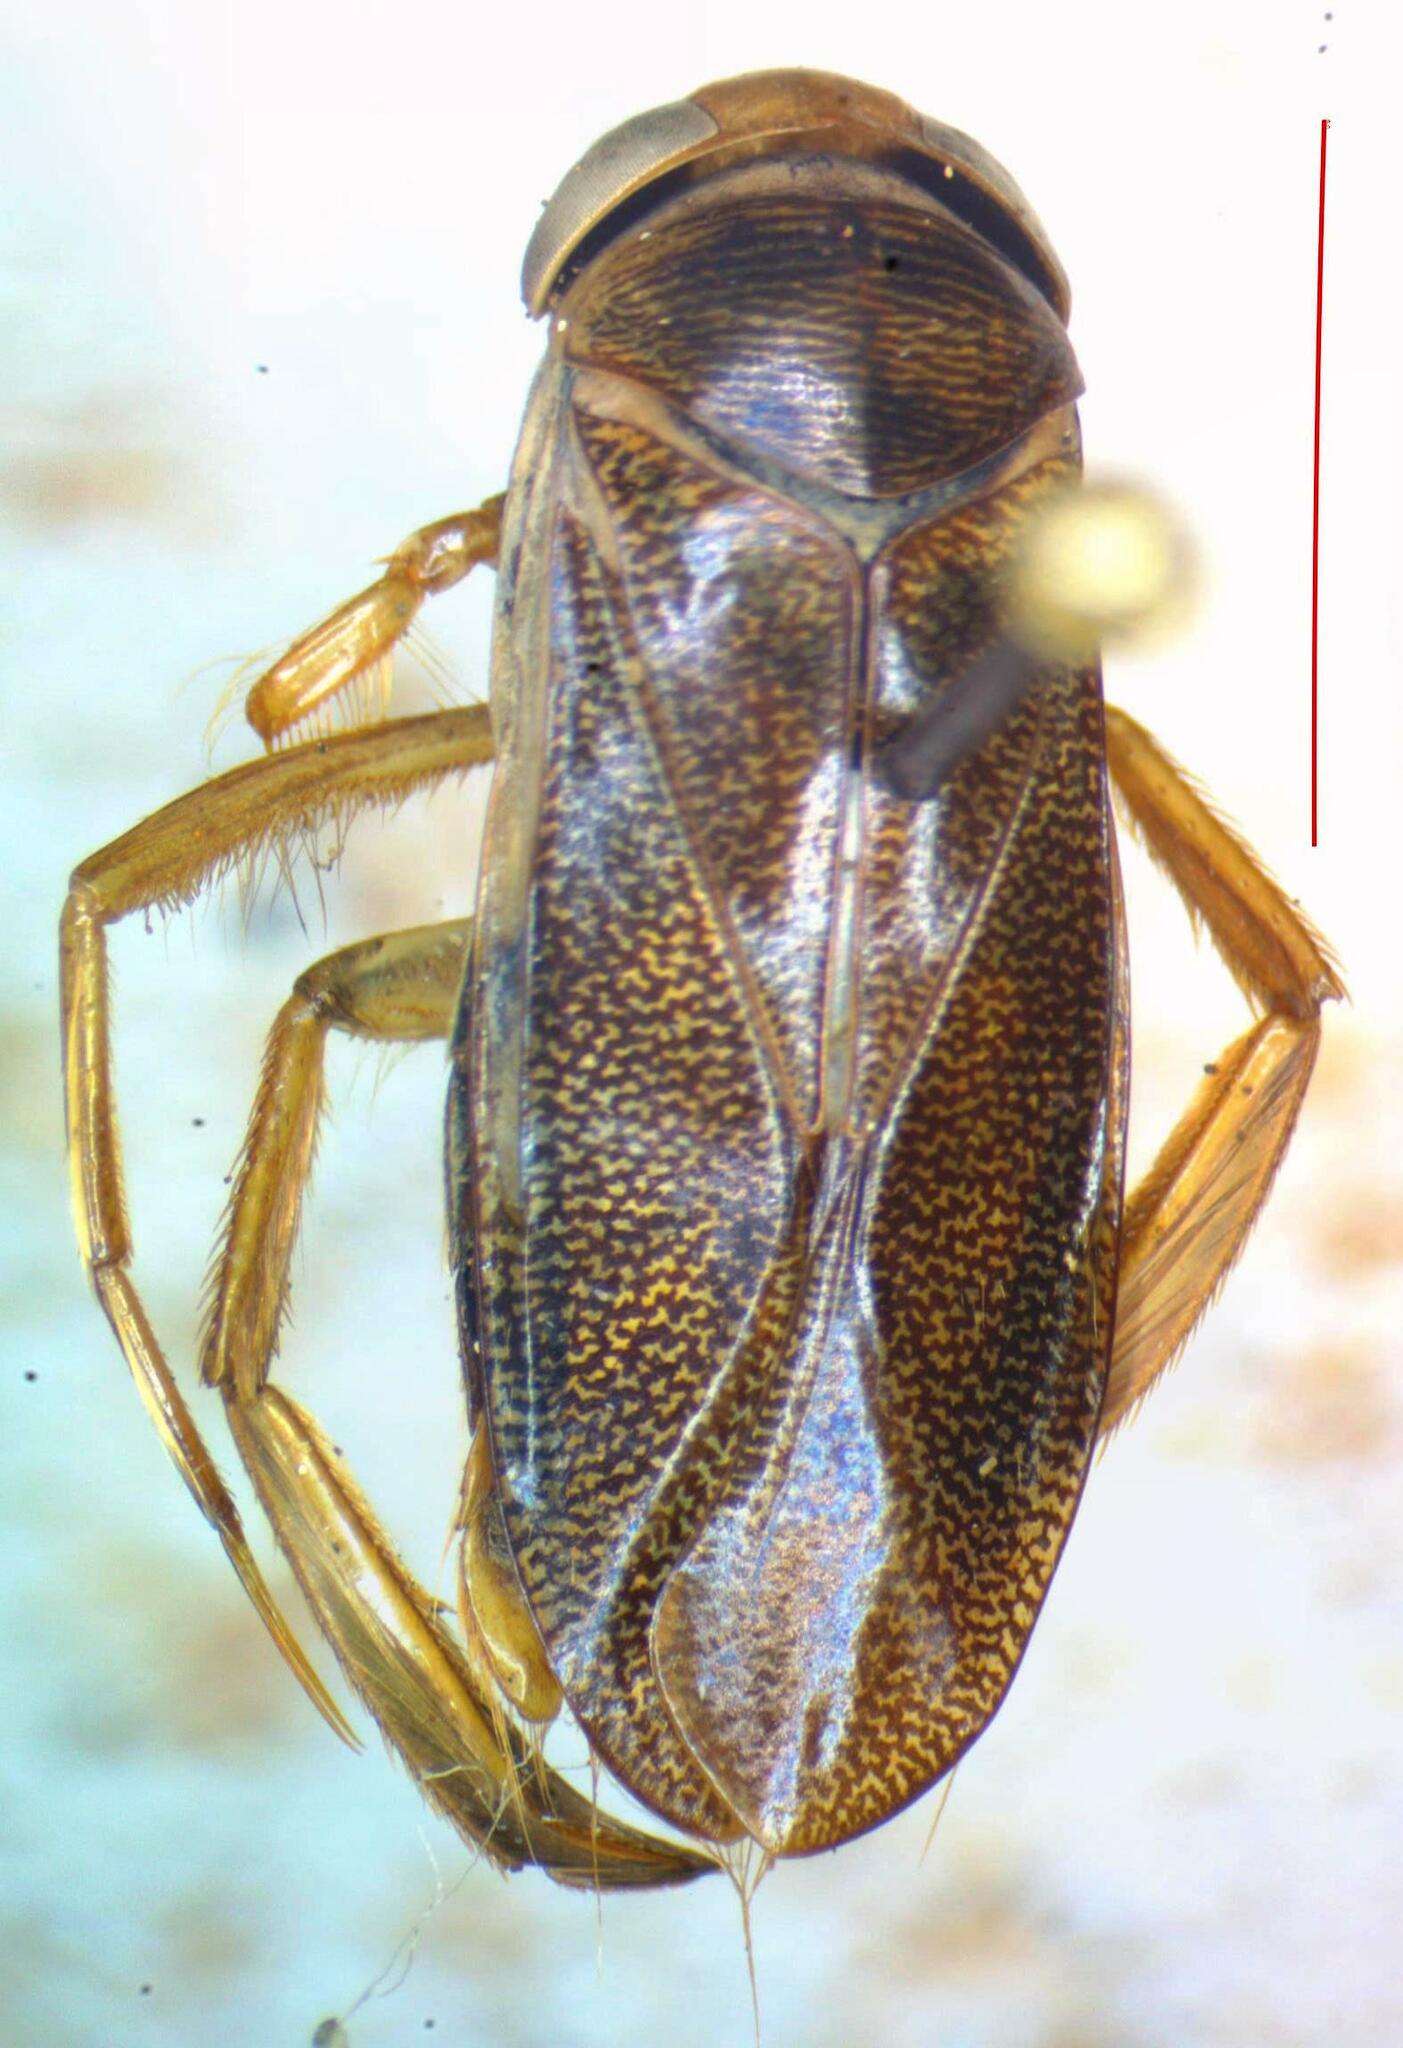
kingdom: Animalia
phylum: Arthropoda
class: Insecta
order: Hemiptera
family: Corixidae
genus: Corixa
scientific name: Corixa punctata
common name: Punctate corixa
